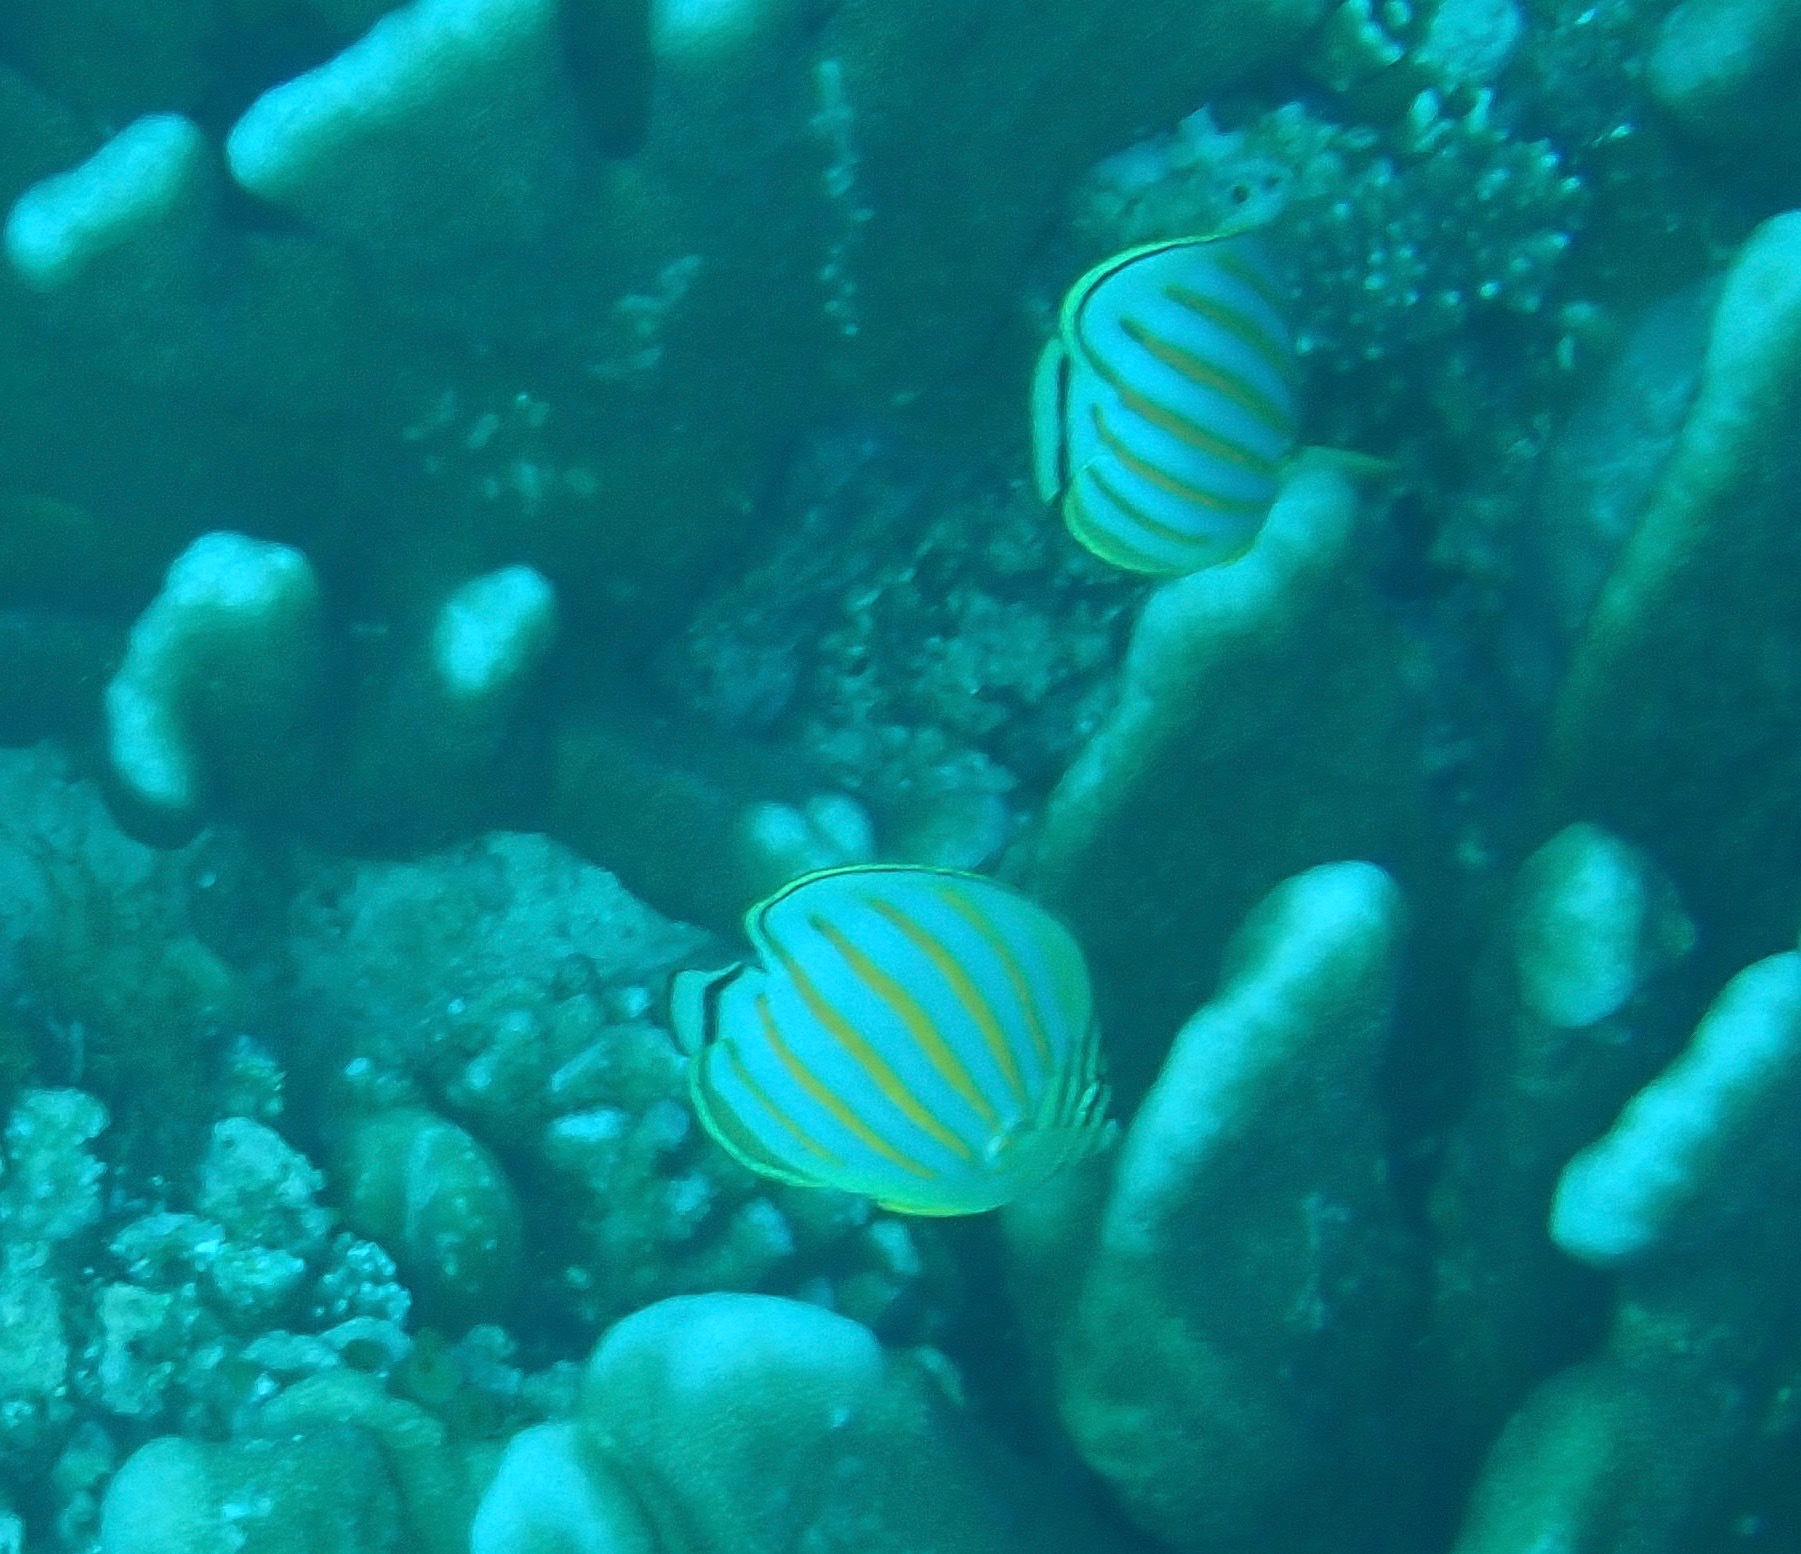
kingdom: Animalia
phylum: Chordata
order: Perciformes
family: Chaetodontidae
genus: Chaetodon
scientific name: Chaetodon ornatissimus
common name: Ornate butterflyfish
